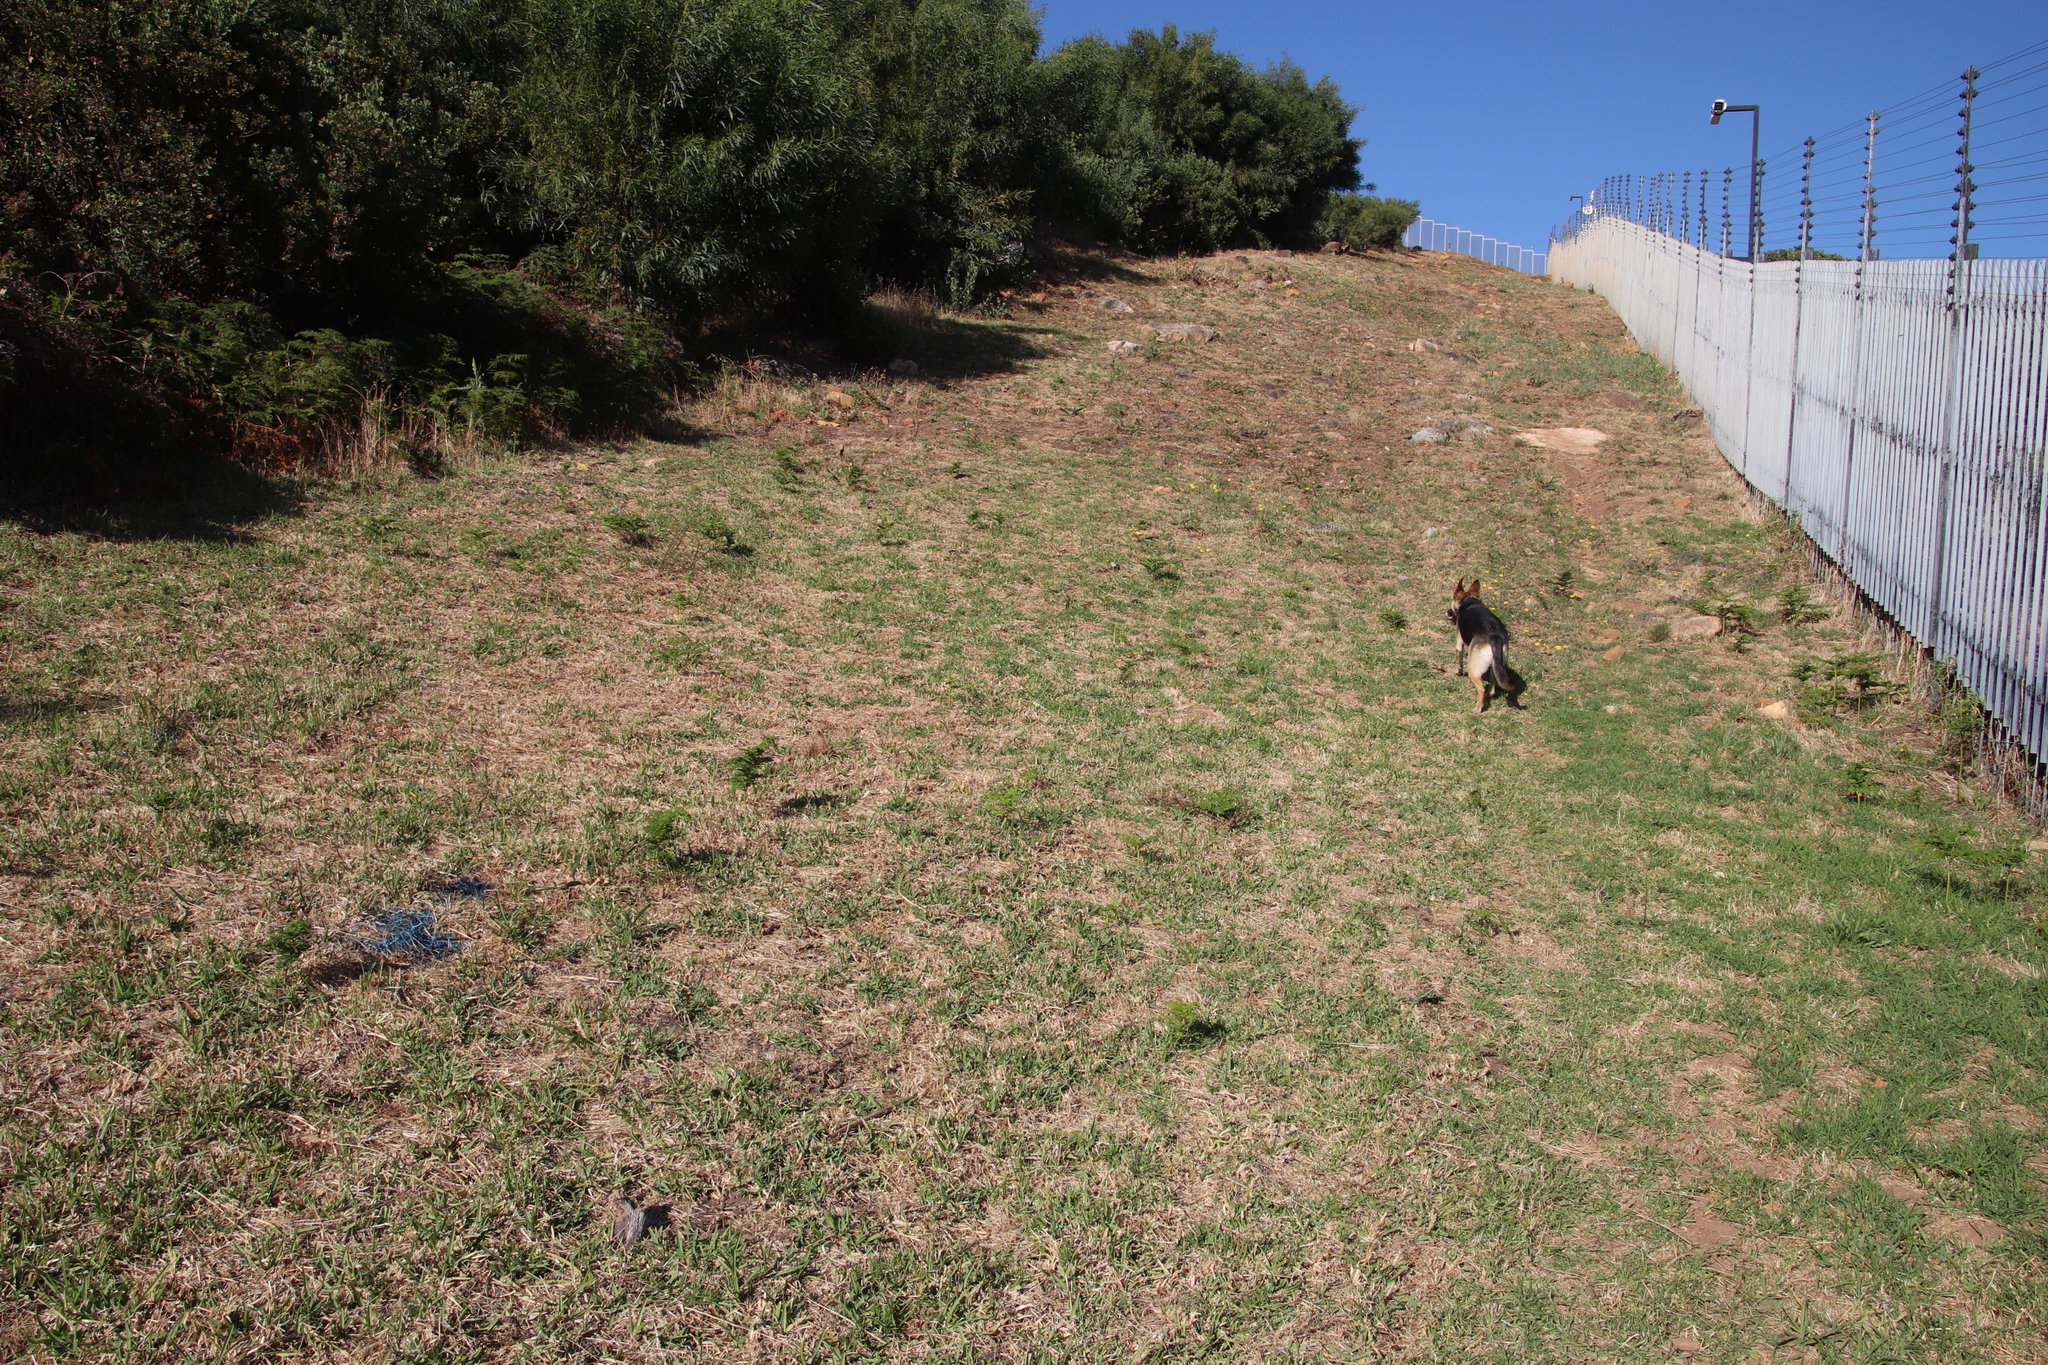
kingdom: Plantae
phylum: Tracheophyta
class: Liliopsida
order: Poales
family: Poaceae
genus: Cenchrus
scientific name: Cenchrus clandestinus
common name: Kikuyugrass
